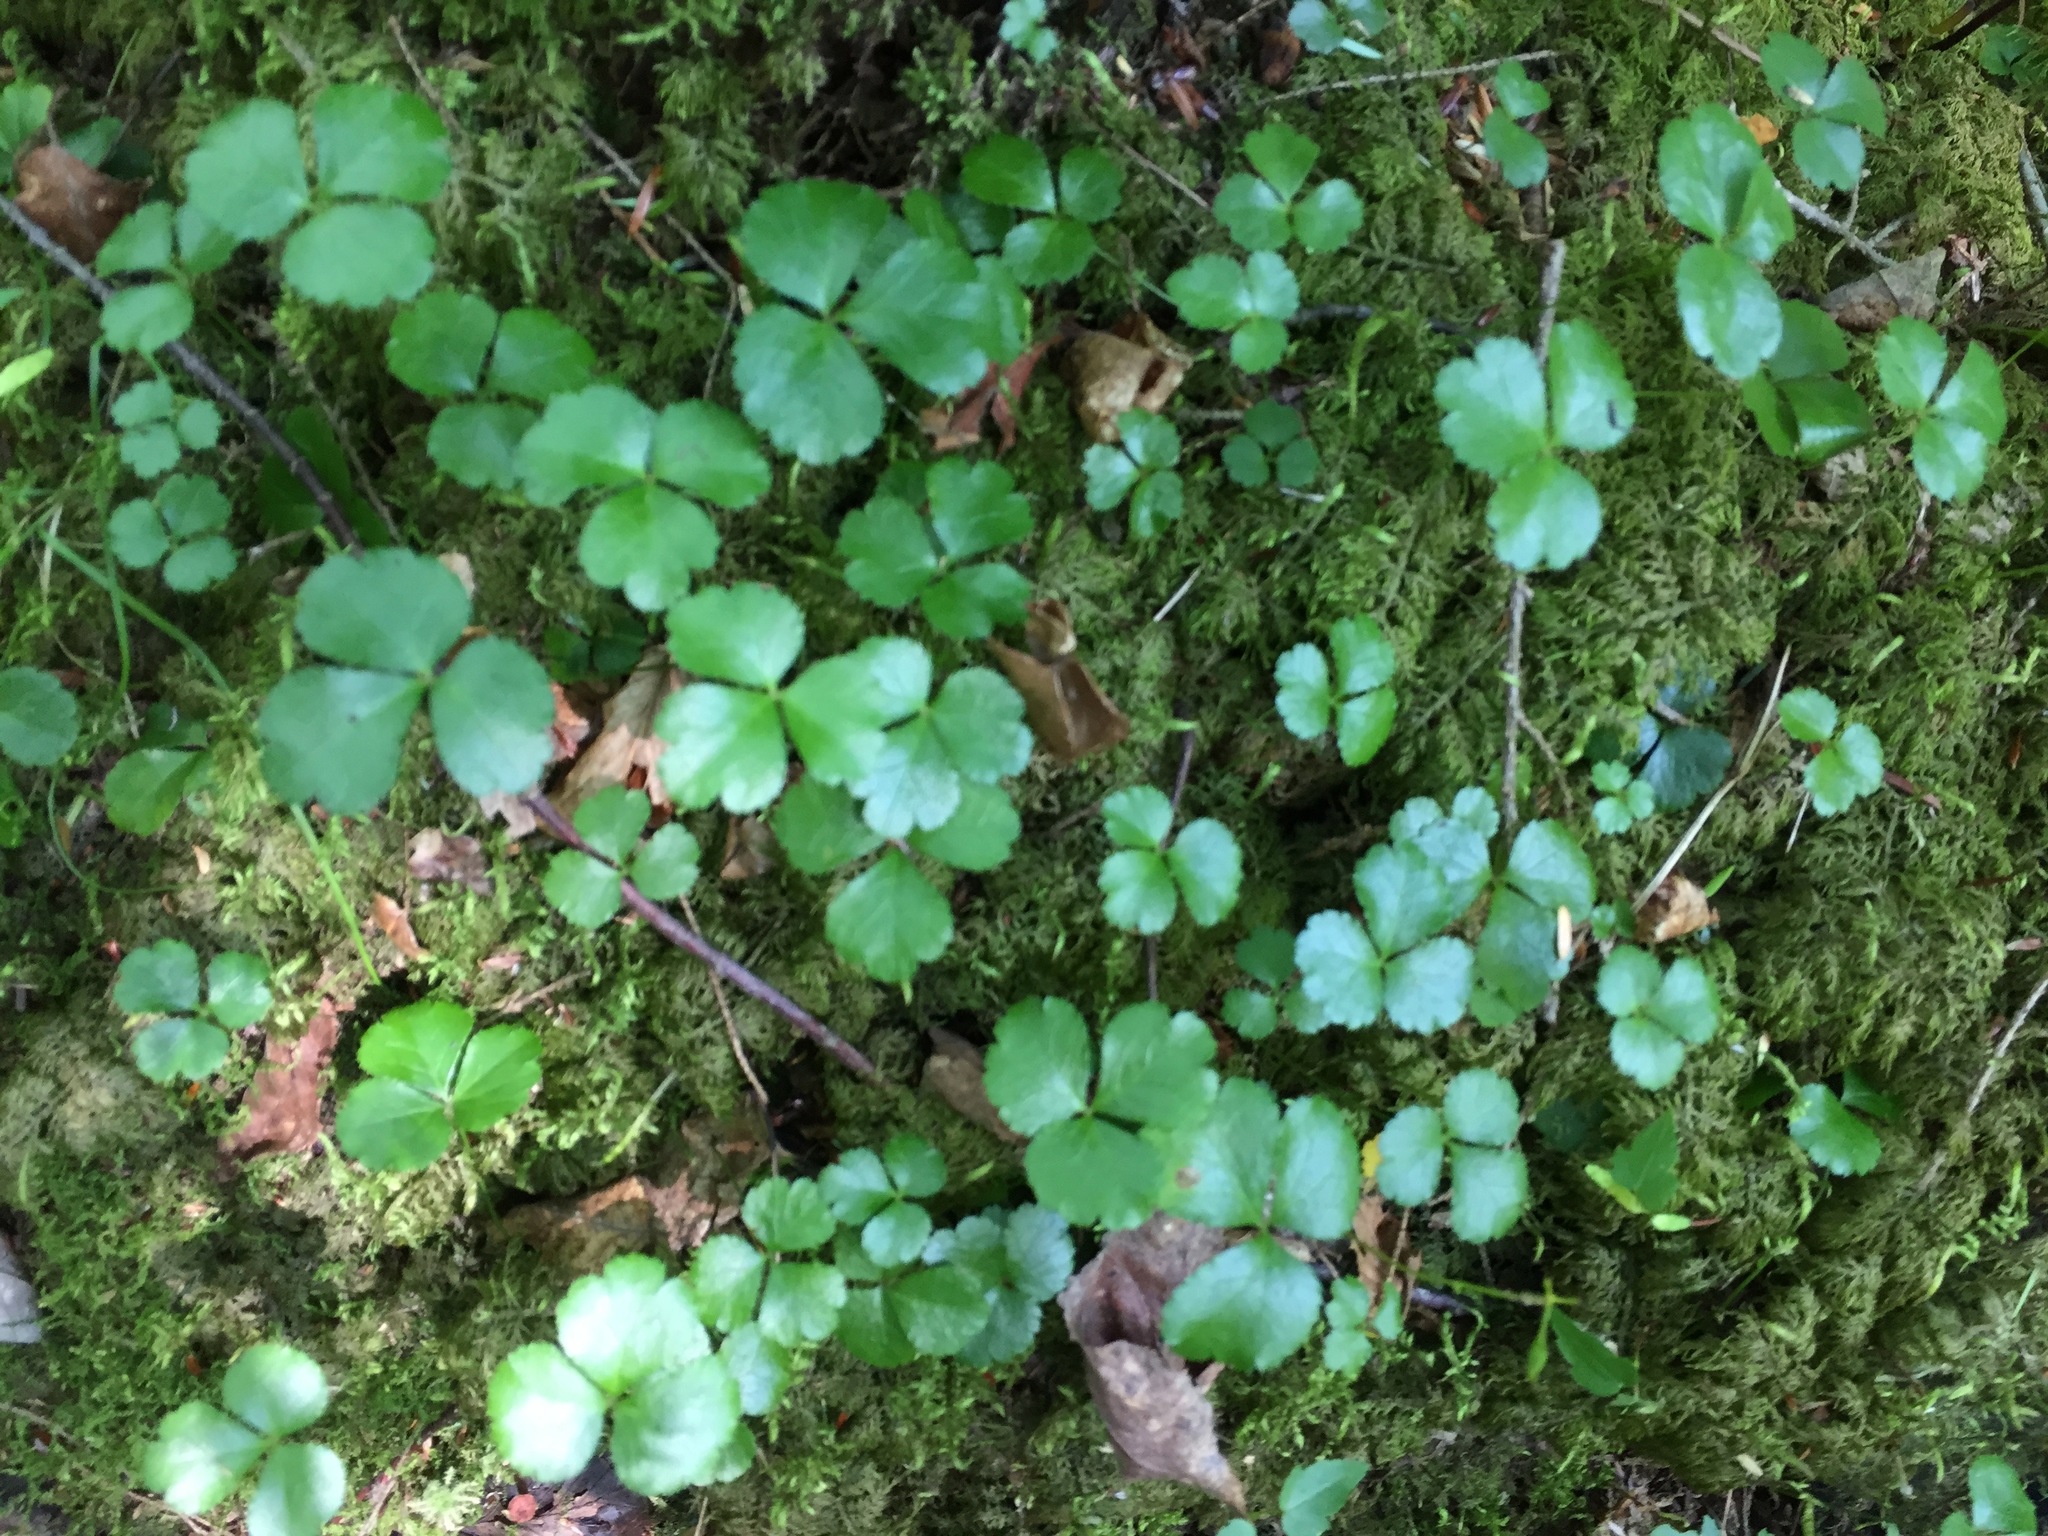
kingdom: Plantae
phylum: Tracheophyta
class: Magnoliopsida
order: Ranunculales
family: Ranunculaceae
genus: Coptis
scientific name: Coptis trifolia
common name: Canker-root
